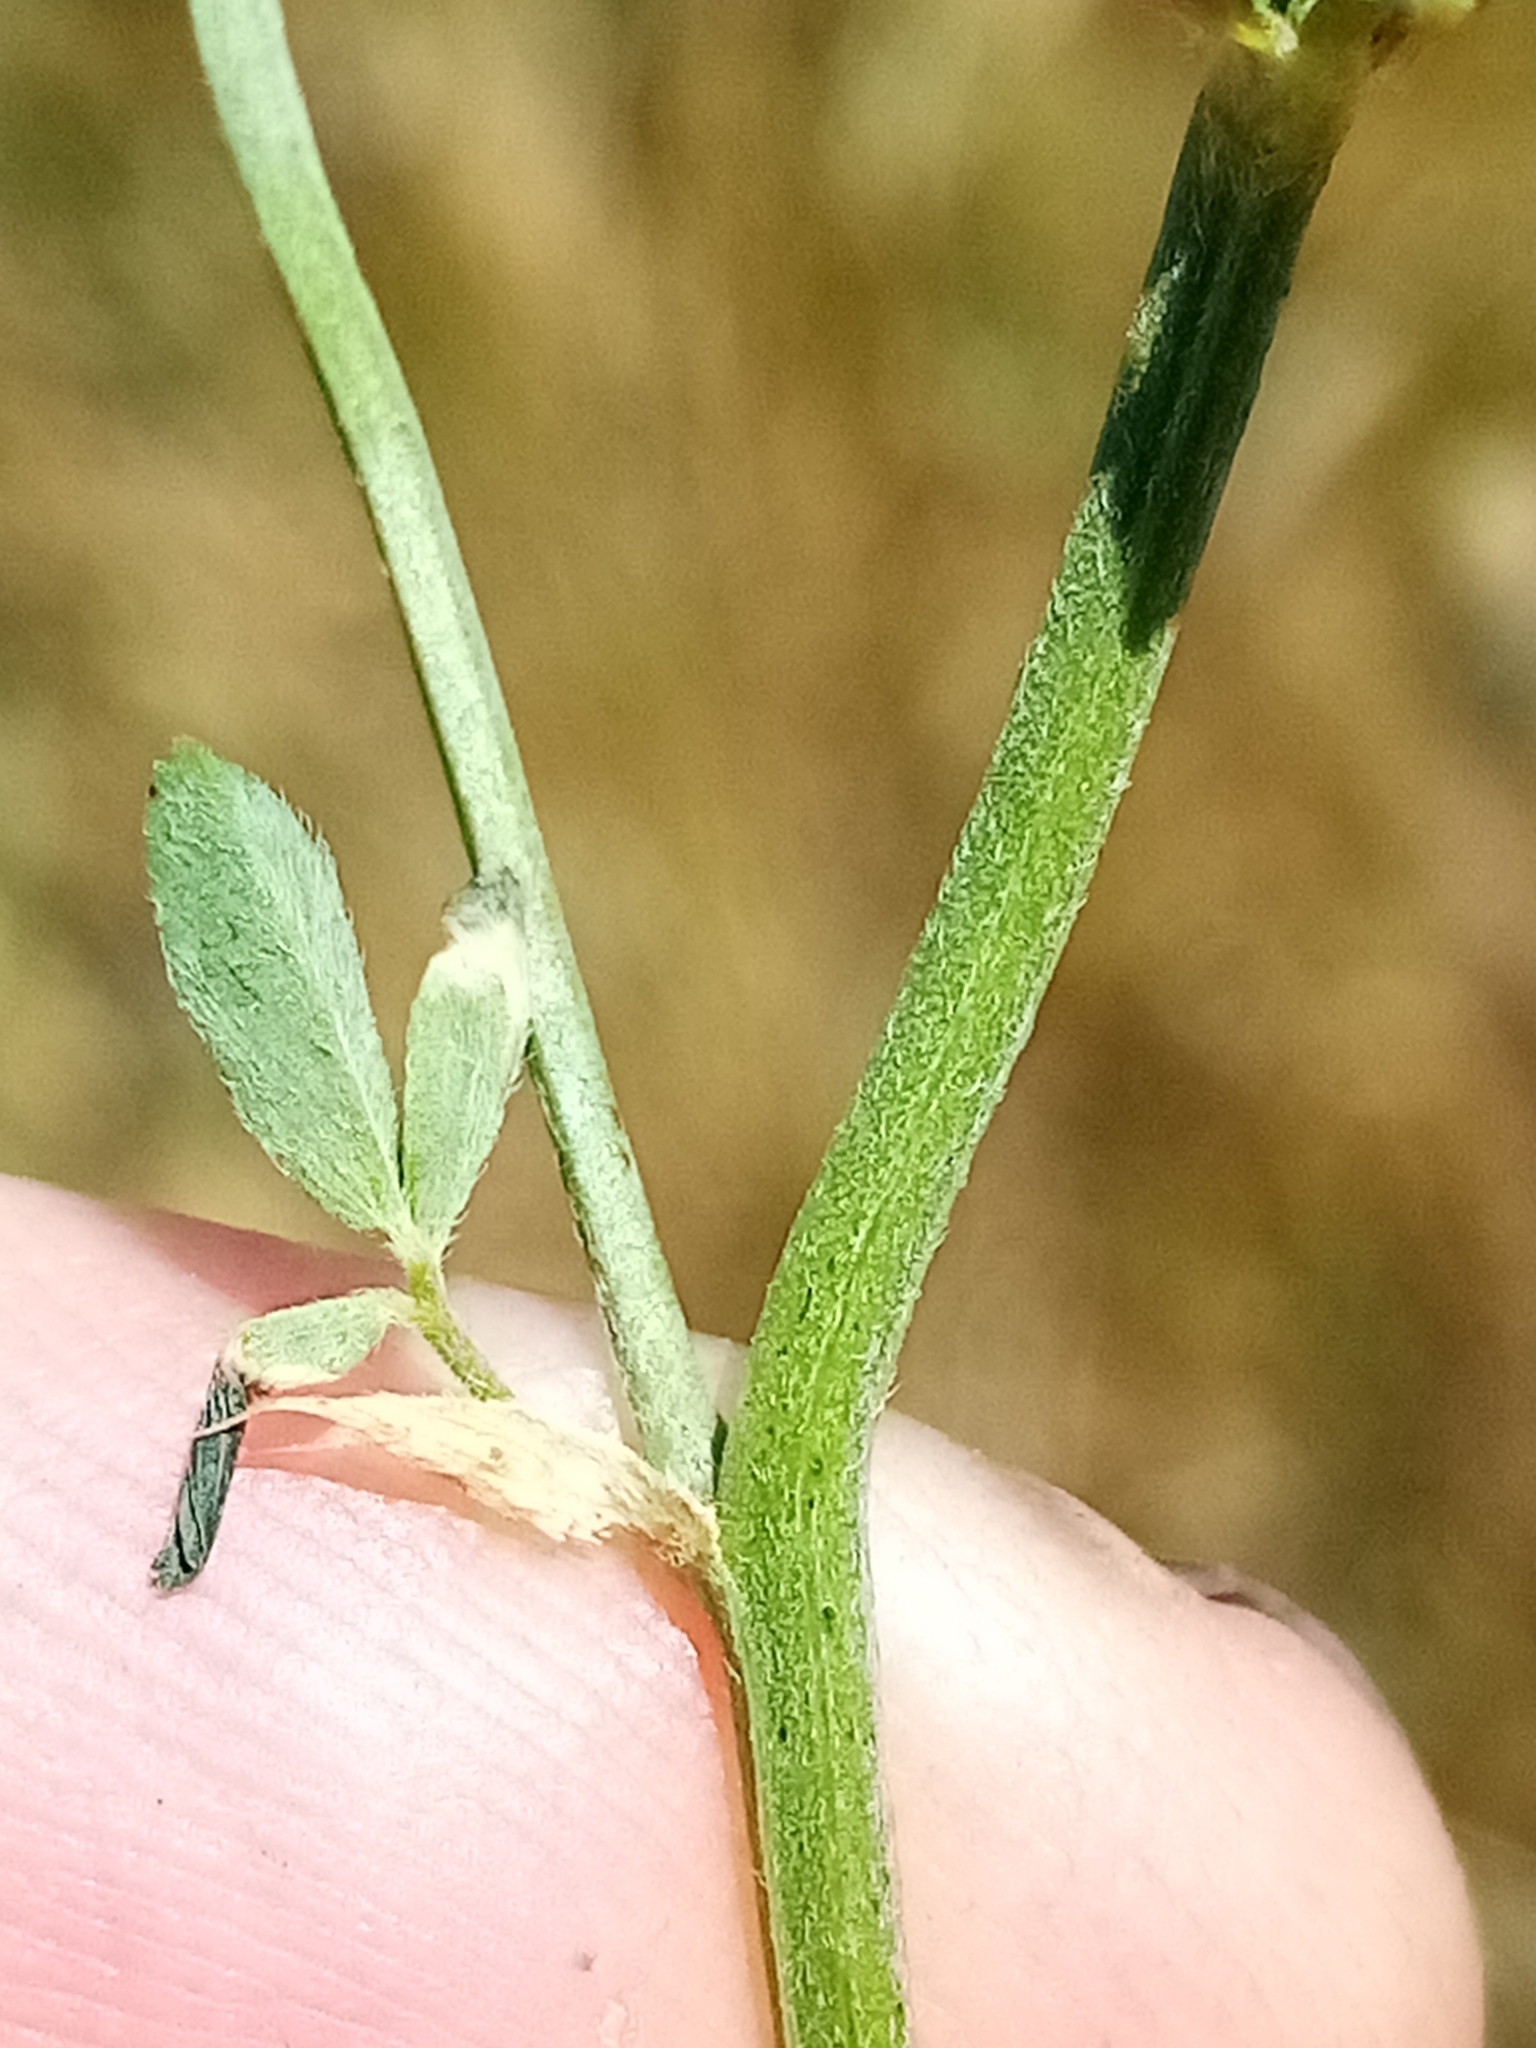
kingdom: Plantae
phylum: Tracheophyta
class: Magnoliopsida
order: Fabales
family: Fabaceae
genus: Medicago
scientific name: Medicago sativa
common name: Alfalfa
